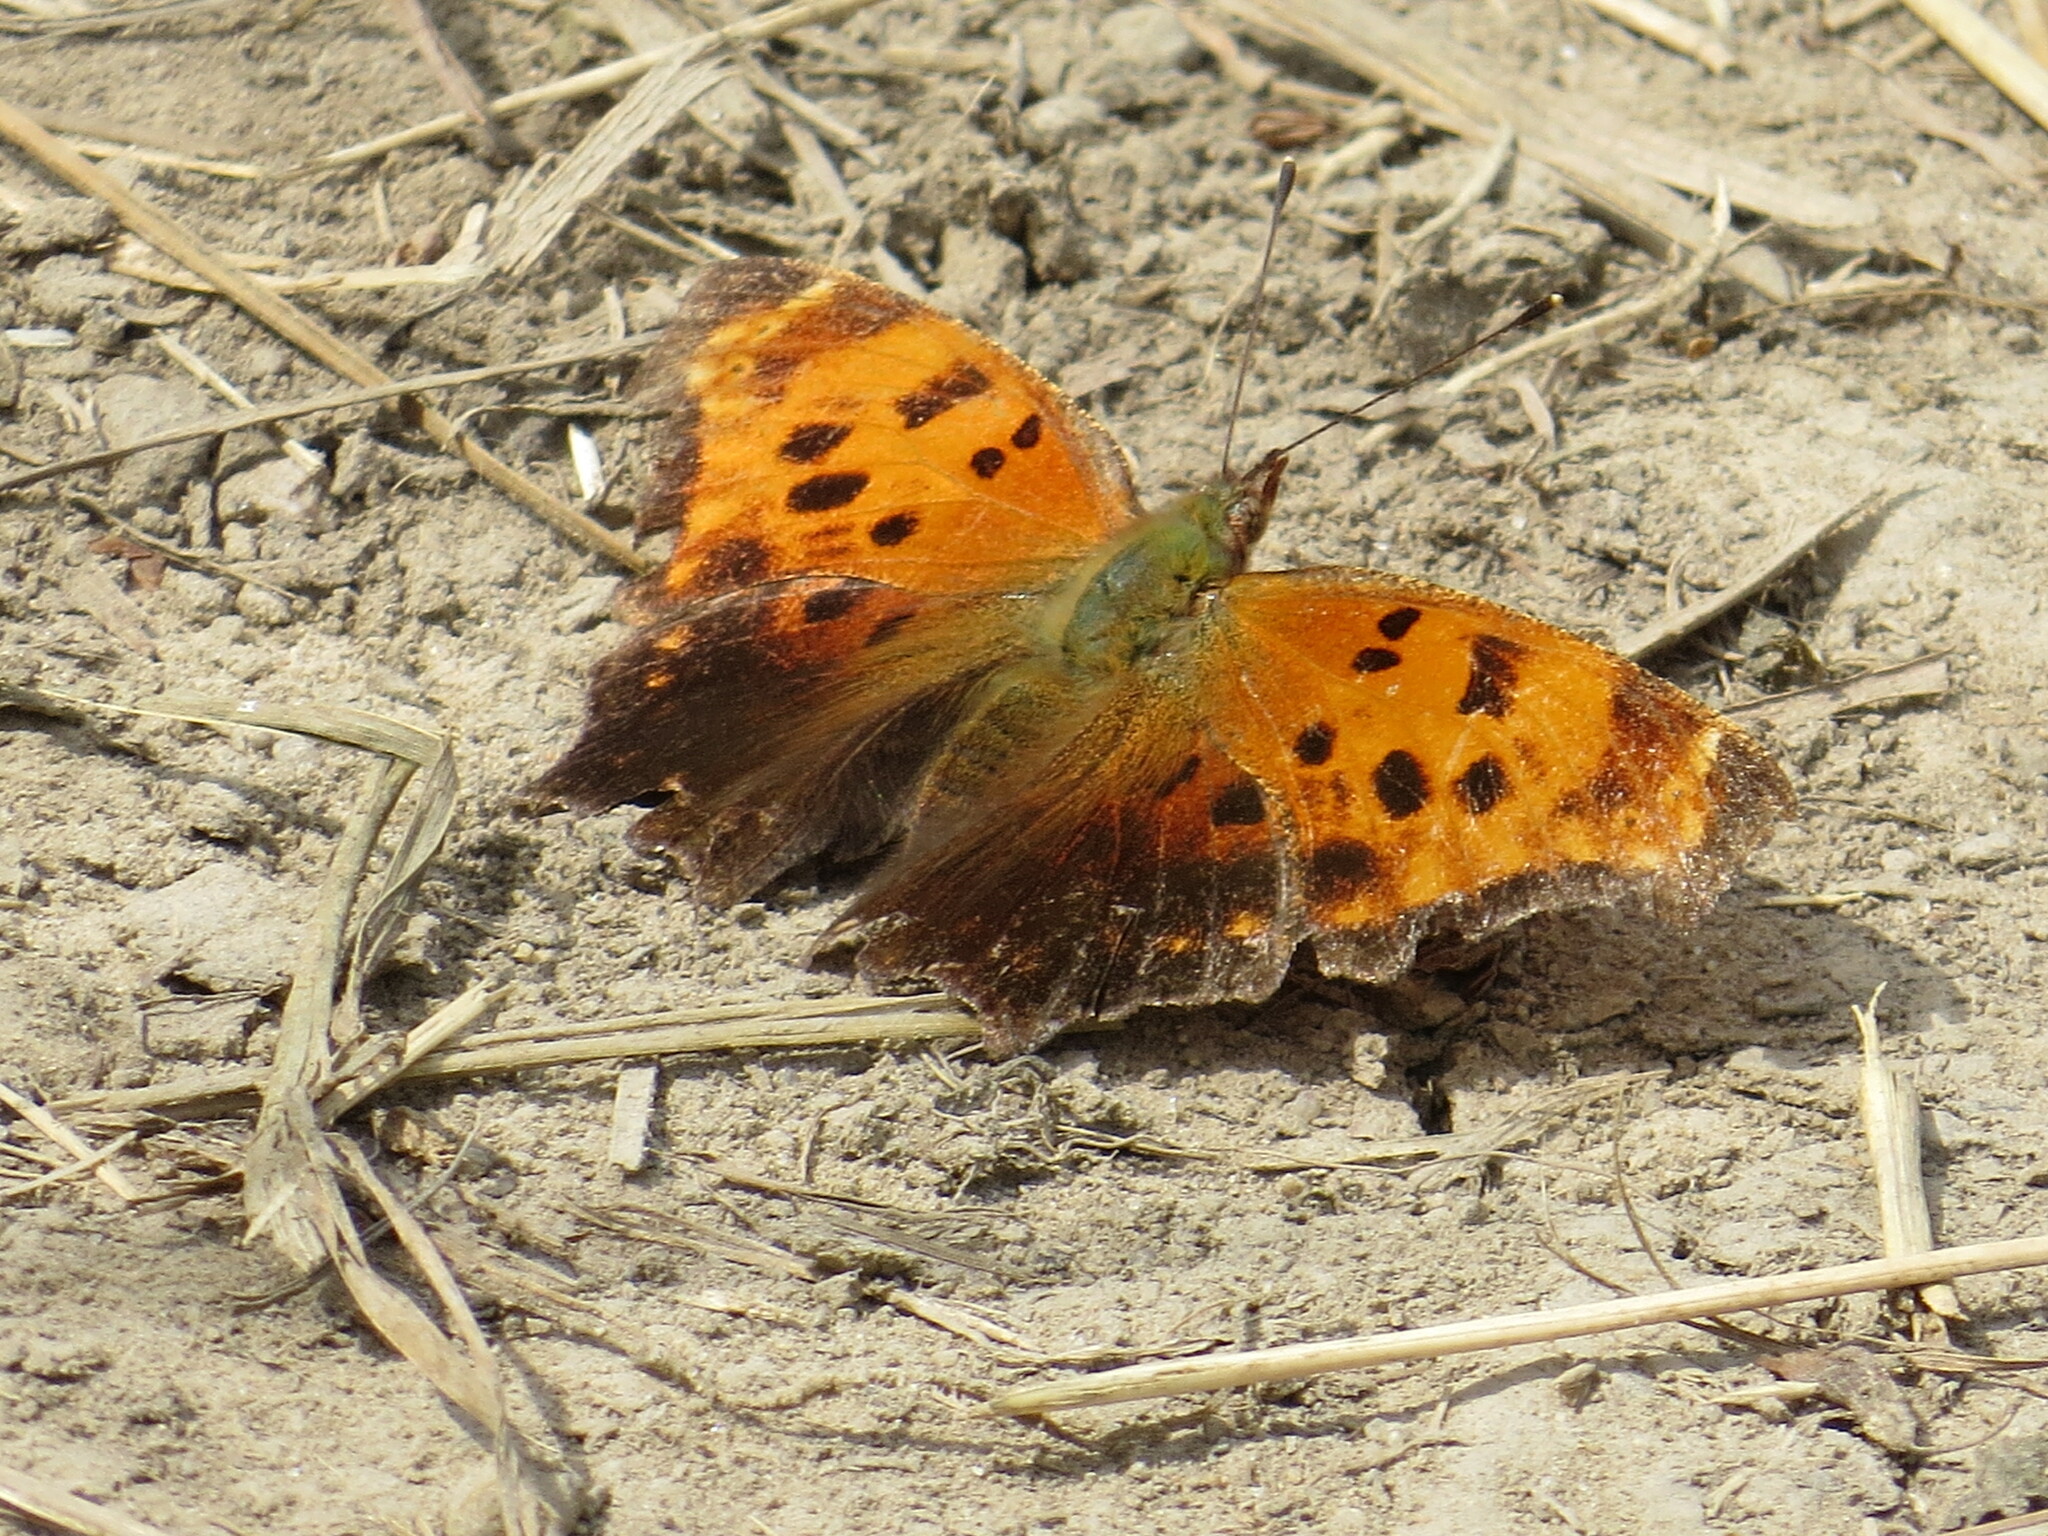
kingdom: Animalia
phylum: Arthropoda
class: Insecta
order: Lepidoptera
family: Nymphalidae
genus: Polygonia
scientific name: Polygonia comma
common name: Eastern comma
